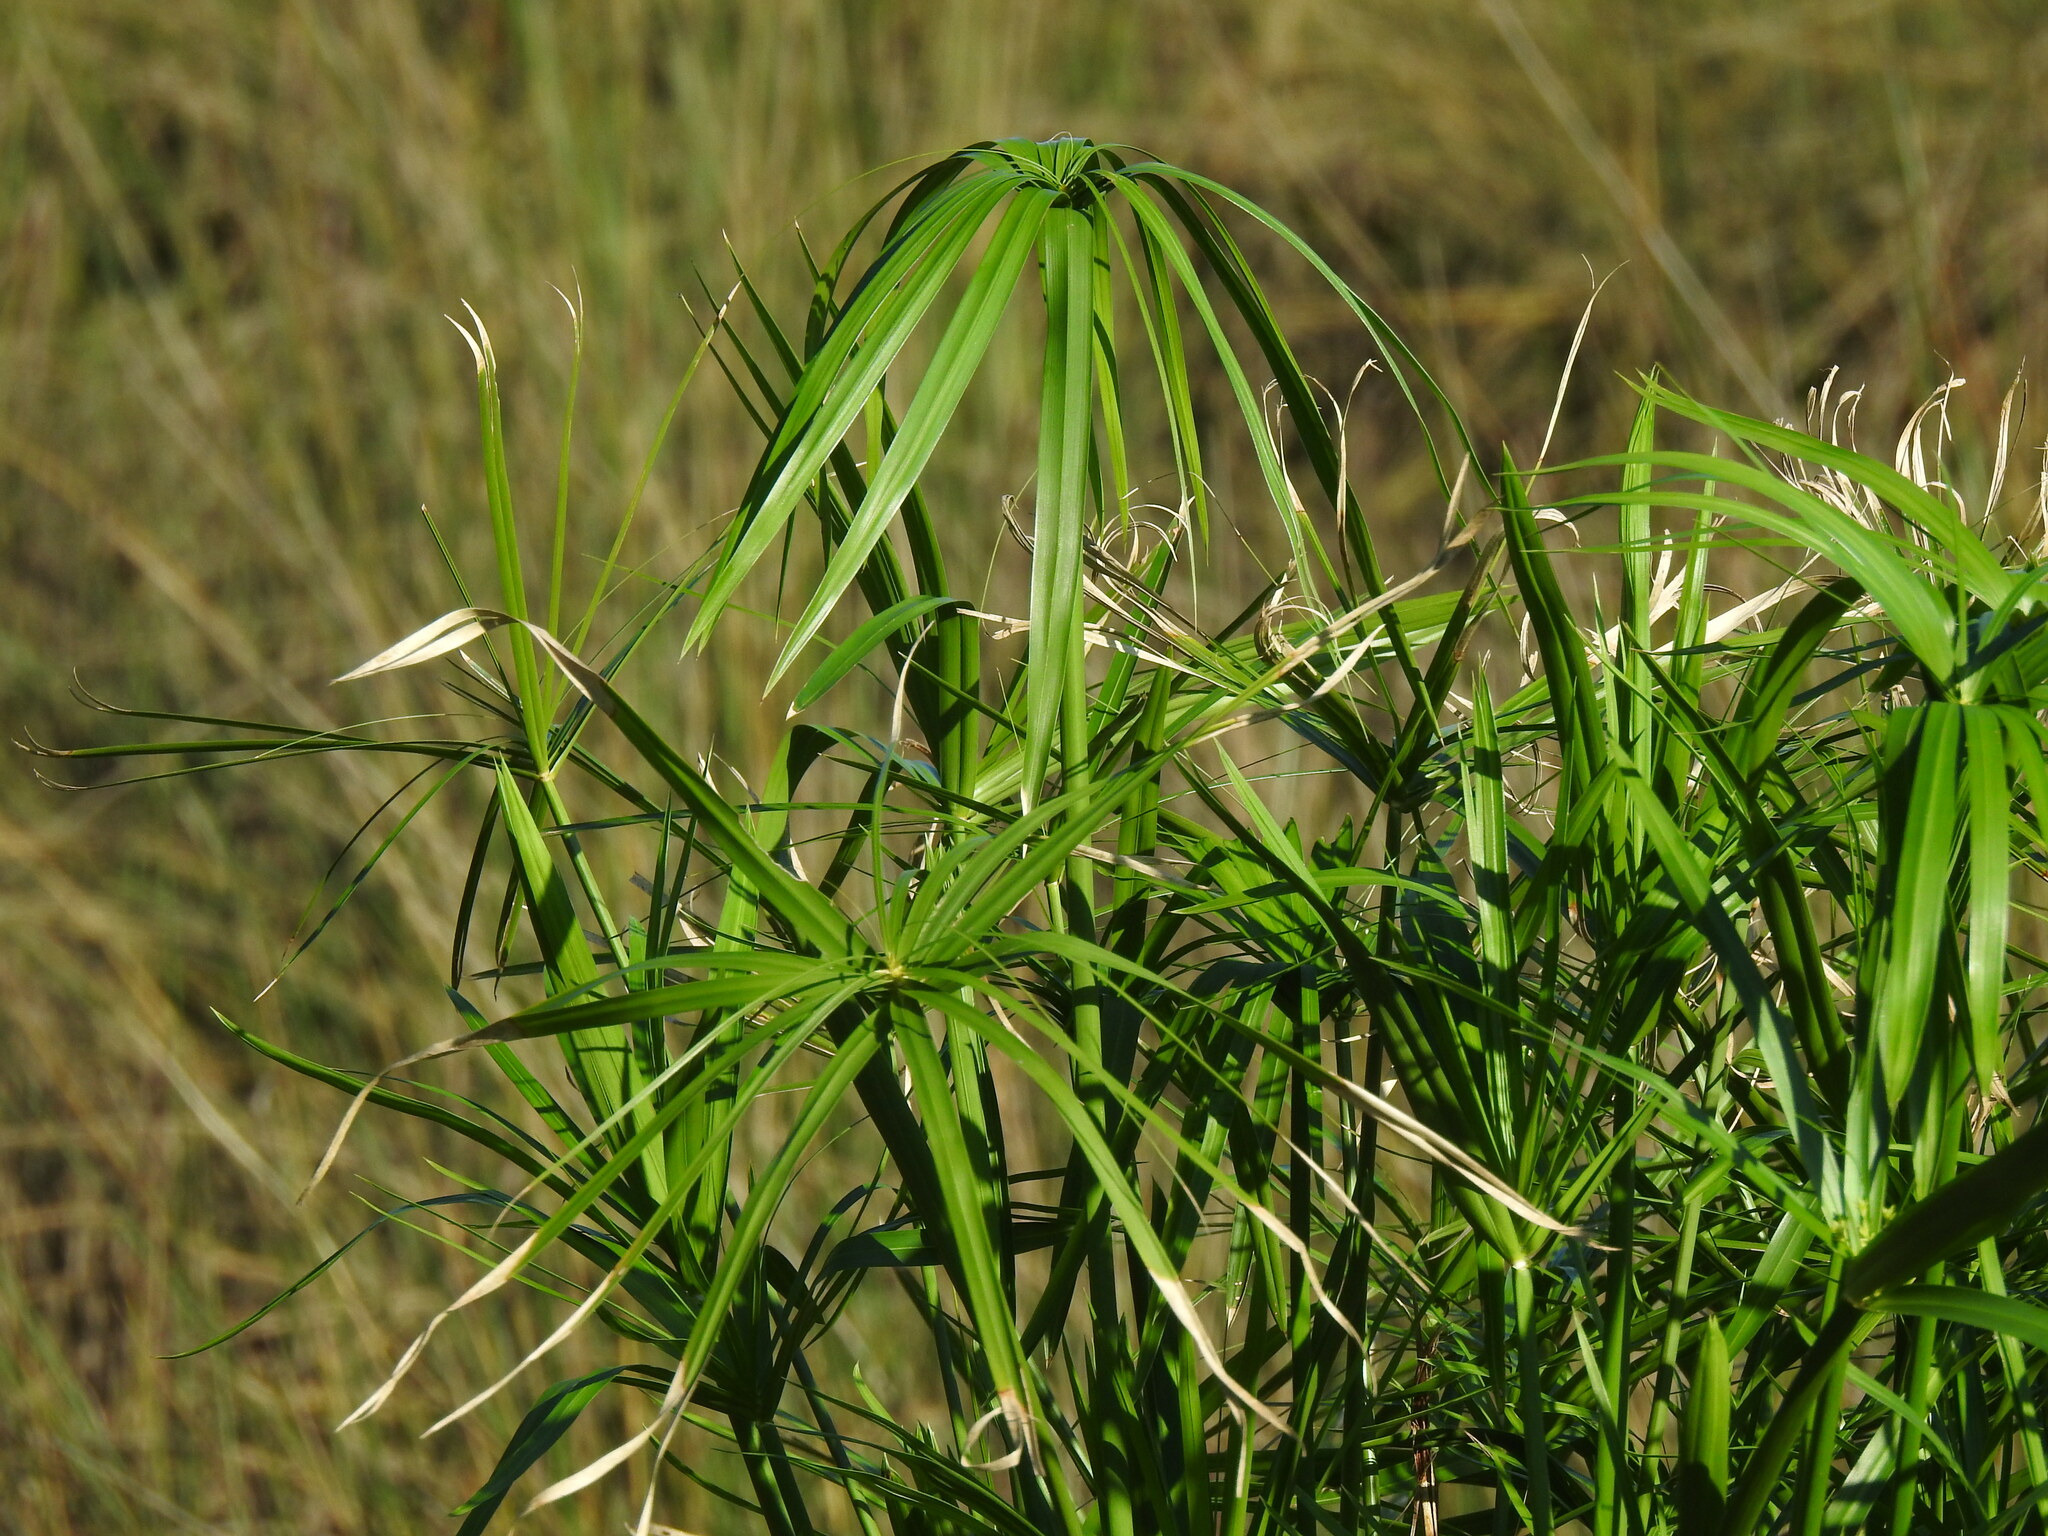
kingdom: Plantae
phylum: Tracheophyta
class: Liliopsida
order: Poales
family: Cyperaceae
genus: Cyperus
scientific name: Cyperus alternifolius
